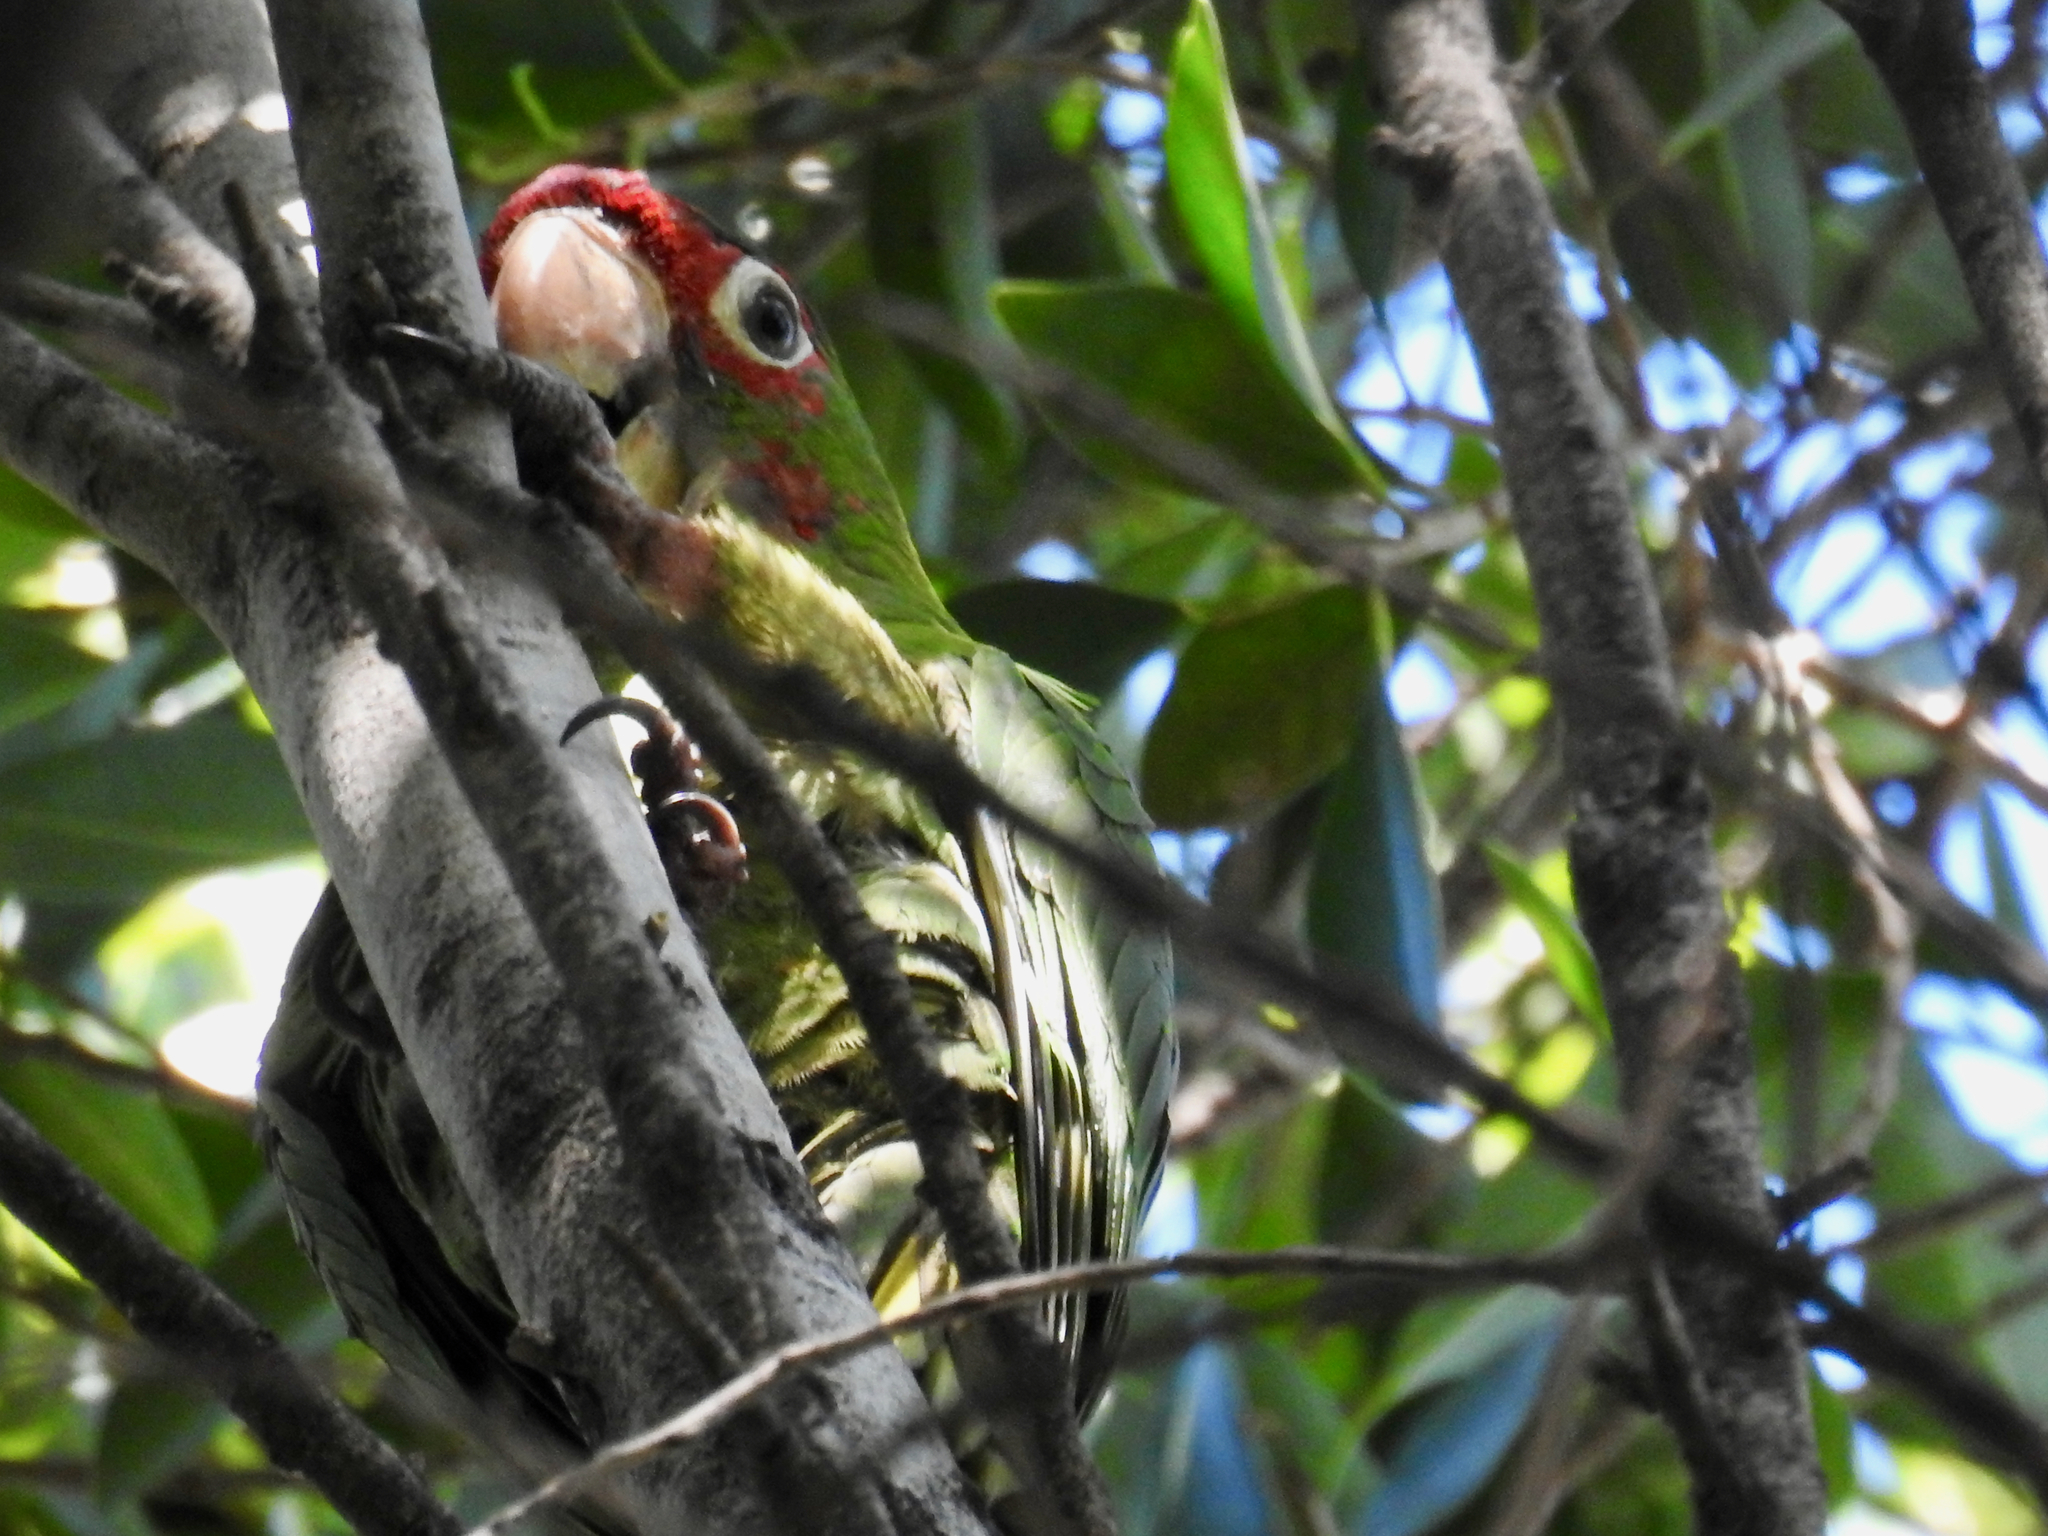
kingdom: Animalia
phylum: Chordata
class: Aves
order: Psittaciformes
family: Psittacidae
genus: Aratinga
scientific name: Aratinga mitrata
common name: Mitred parakeet
